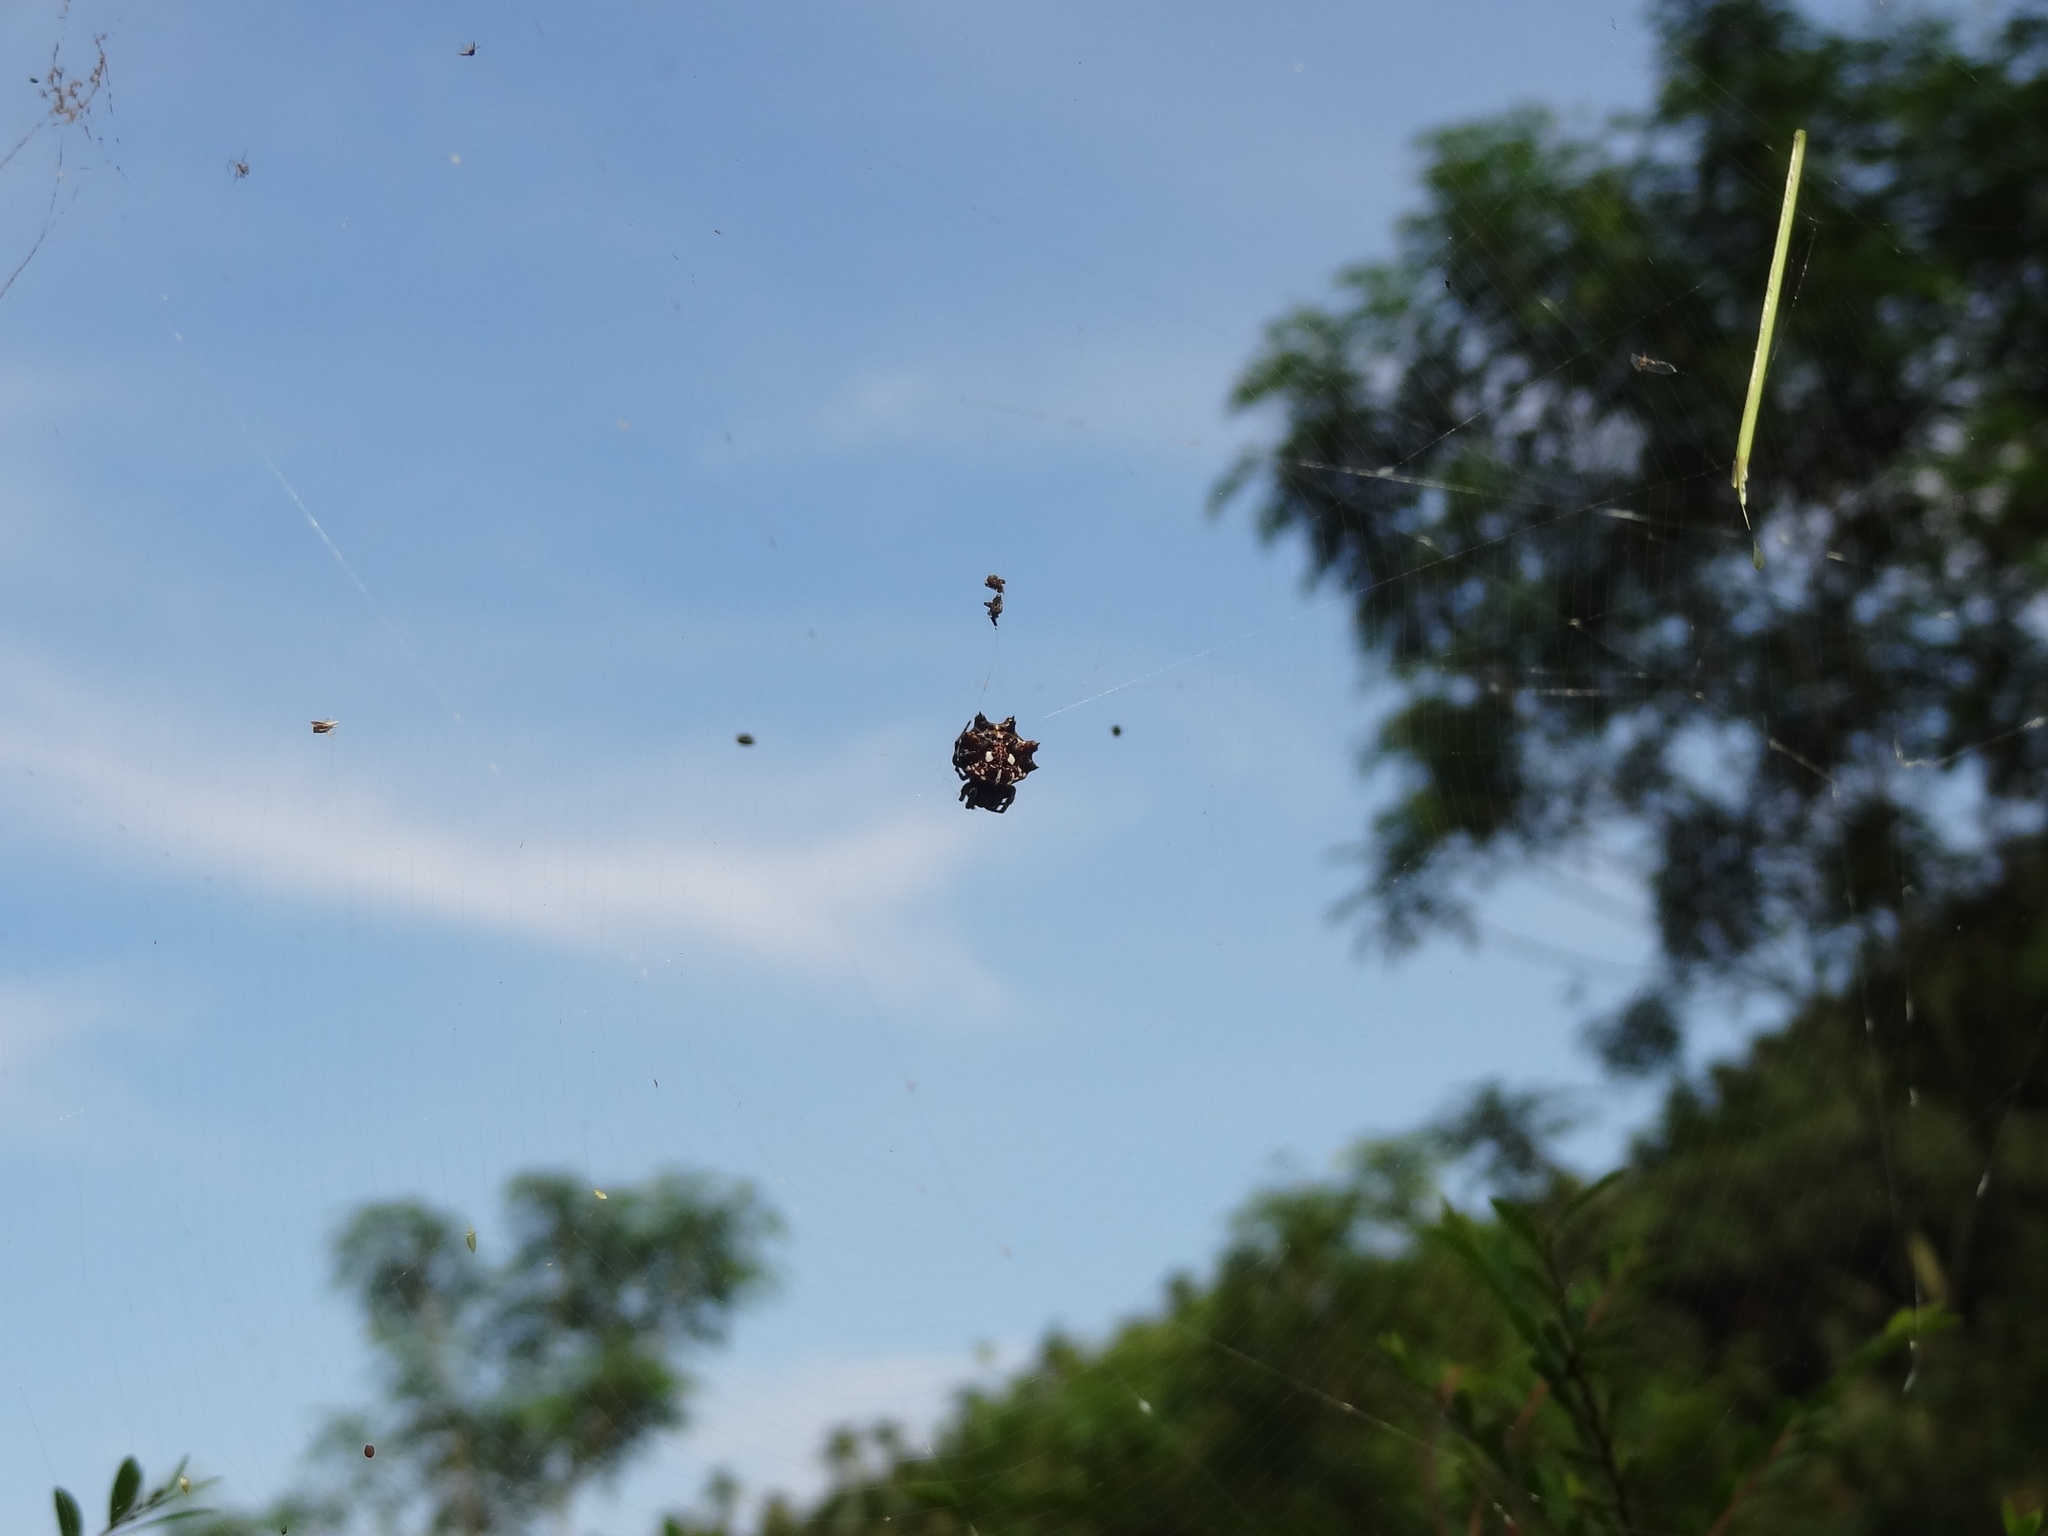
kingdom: Animalia
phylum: Arthropoda
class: Arachnida
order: Araneae
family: Araneidae
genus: Thelacantha
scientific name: Thelacantha brevispina
